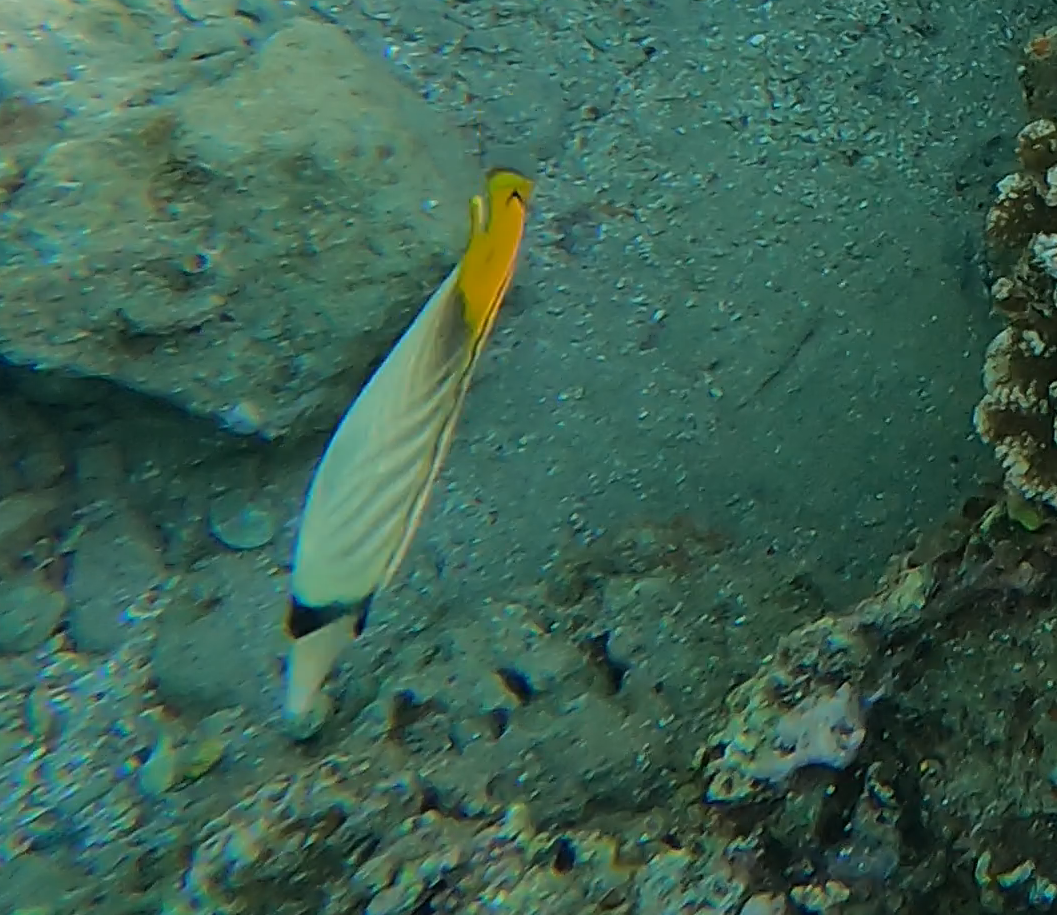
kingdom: Animalia
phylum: Chordata
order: Perciformes
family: Chaetodontidae
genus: Chaetodon
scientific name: Chaetodon auriga
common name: Threadfin butterflyfish
